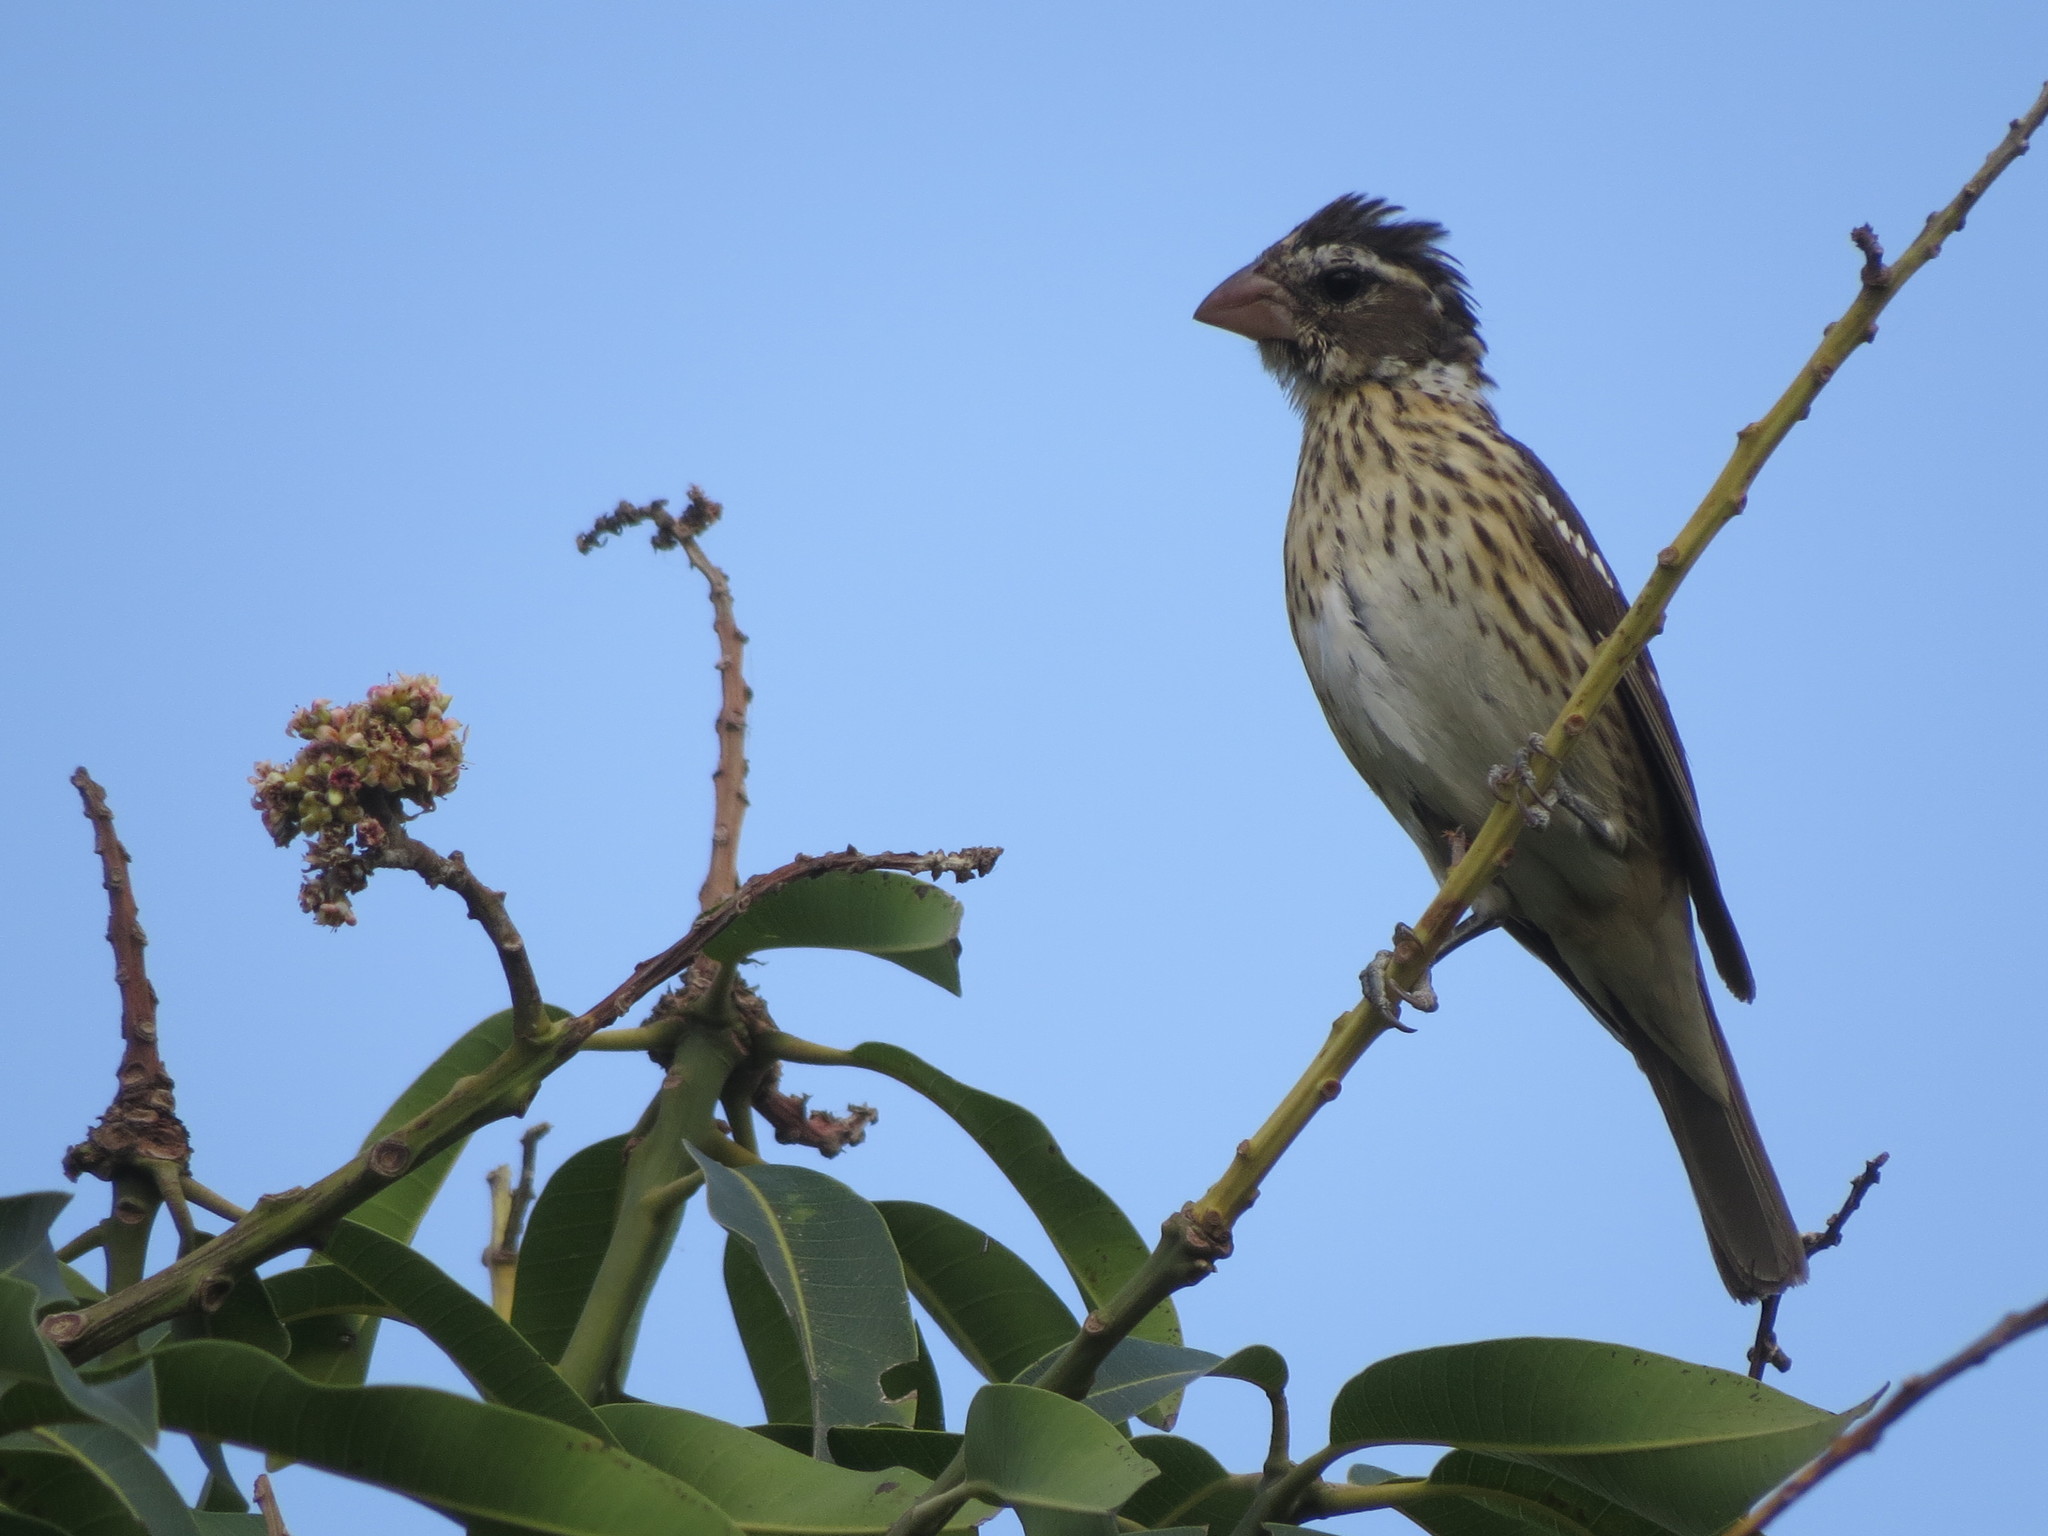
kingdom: Animalia
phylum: Chordata
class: Aves
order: Passeriformes
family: Cardinalidae
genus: Pheucticus
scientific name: Pheucticus ludovicianus
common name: Rose-breasted grosbeak
